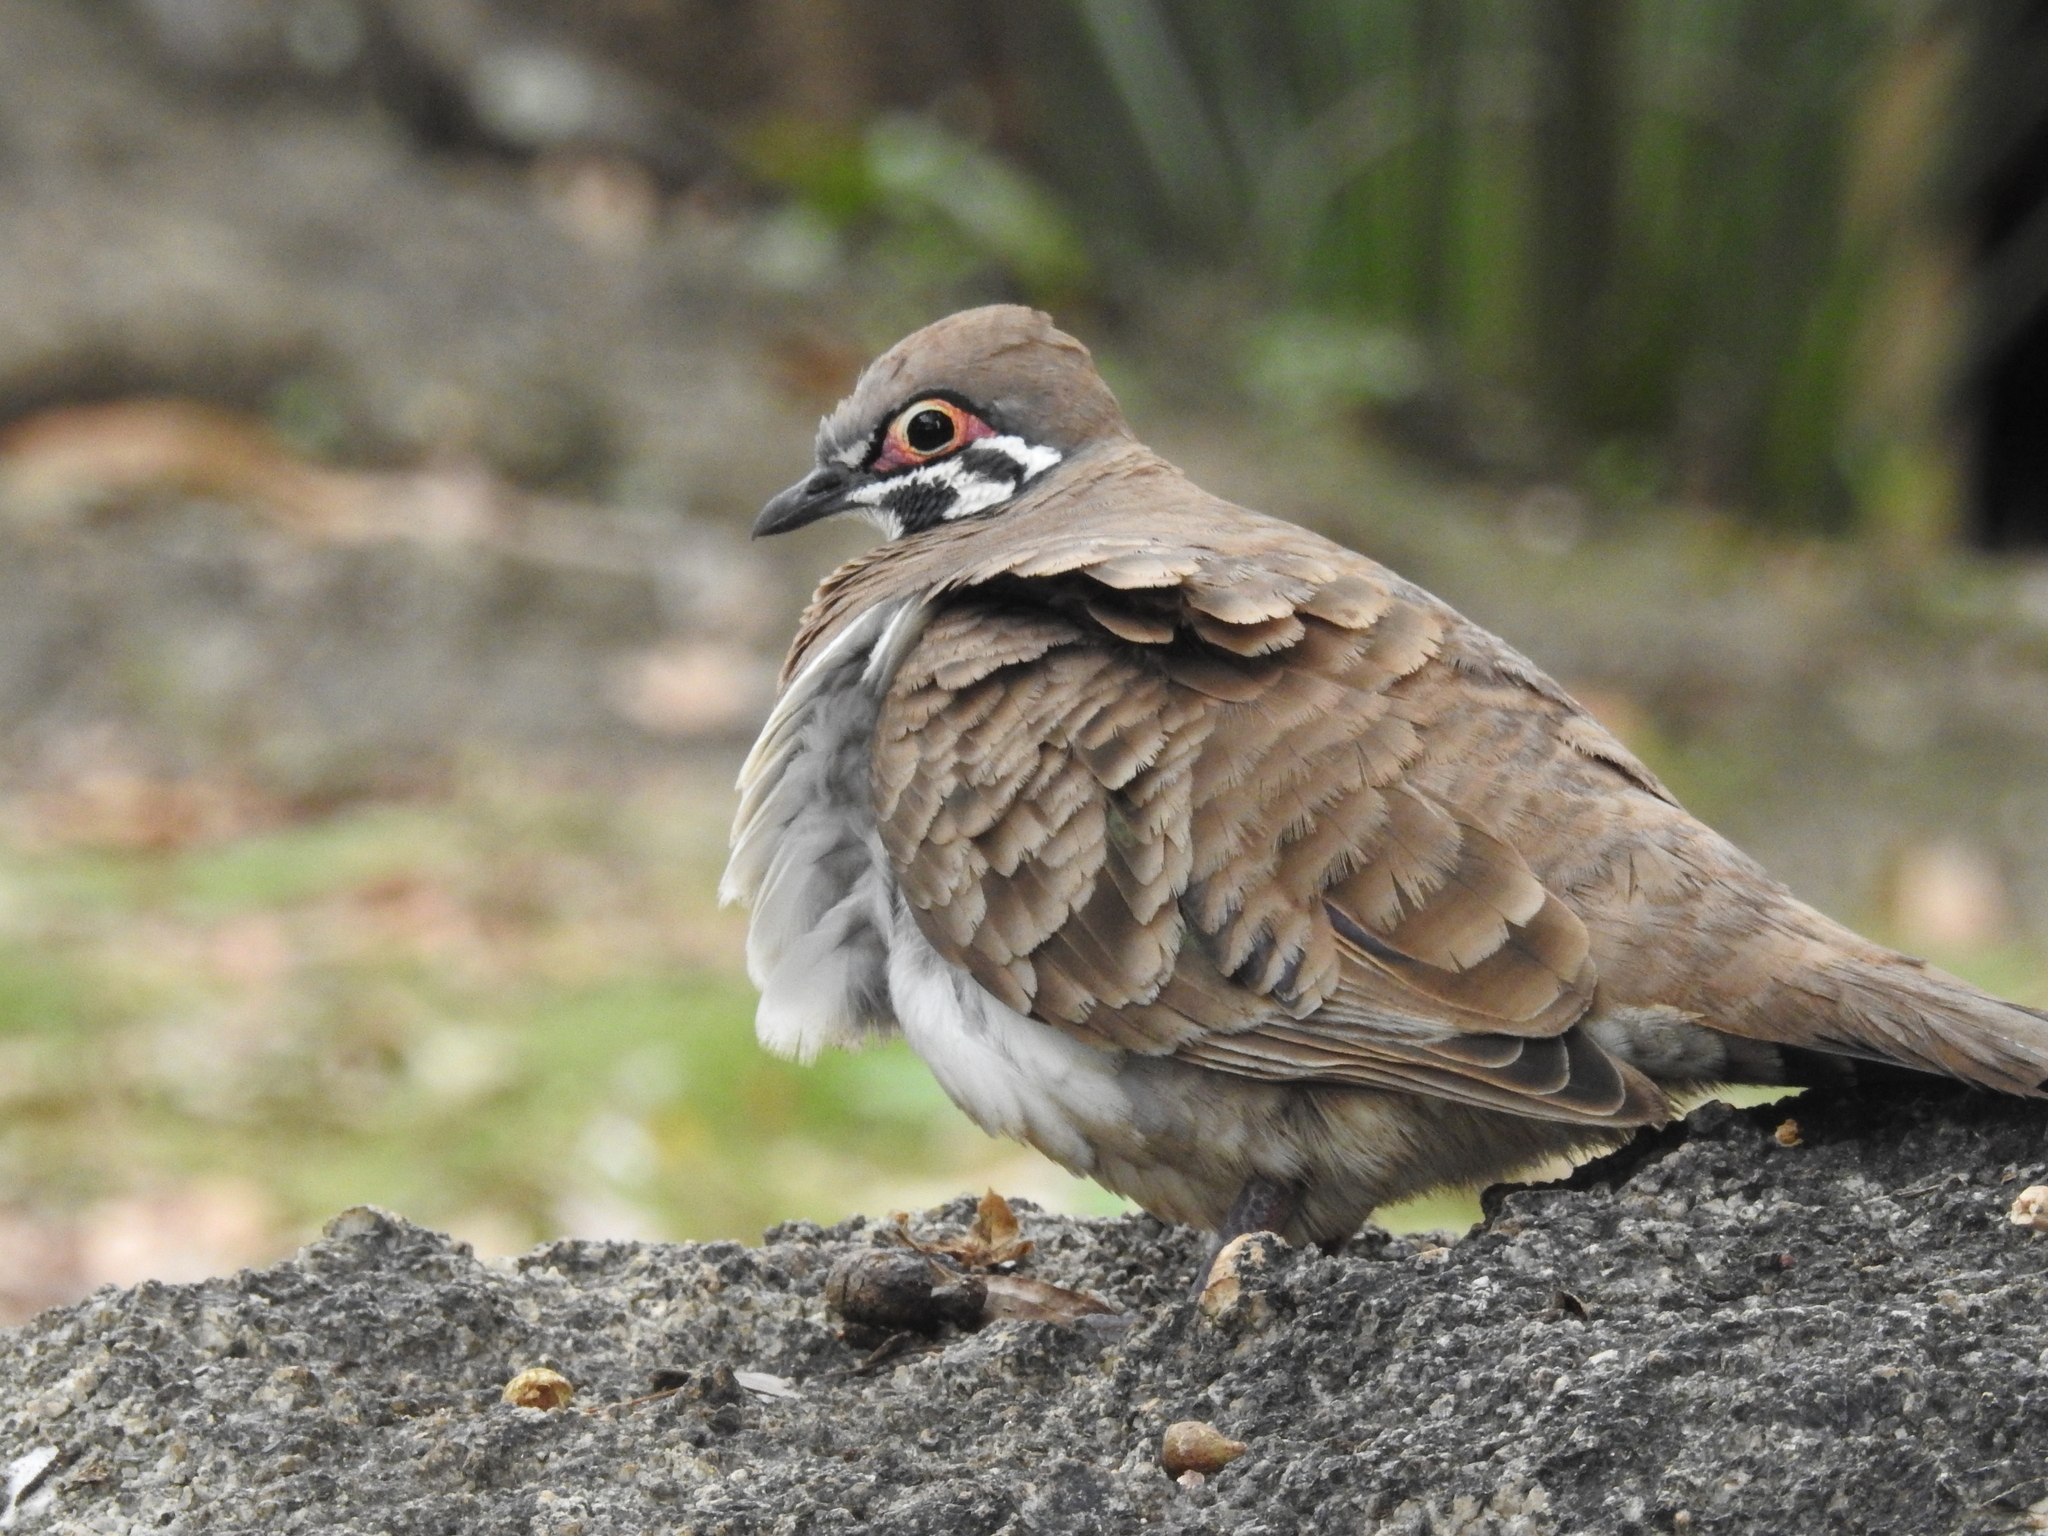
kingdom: Animalia
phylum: Chordata
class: Aves
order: Columbiformes
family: Columbidae
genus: Geophaps
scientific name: Geophaps scripta
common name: Squatter pigeon
